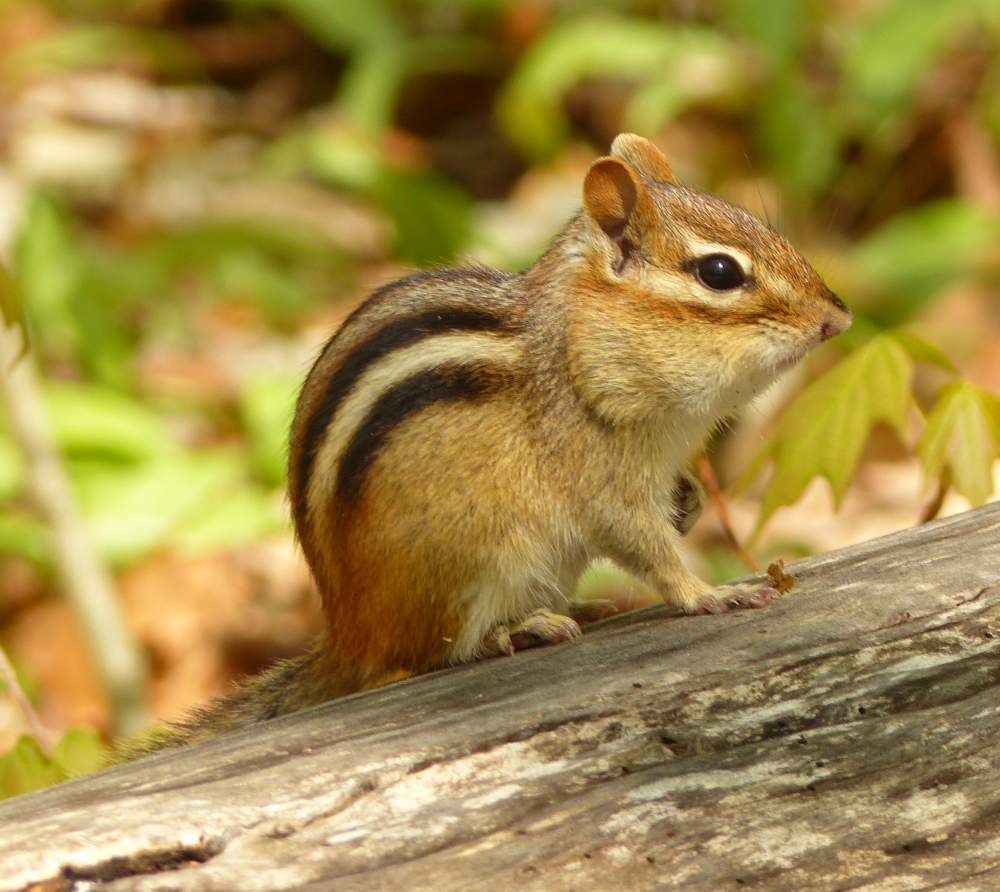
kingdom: Animalia
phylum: Chordata
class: Mammalia
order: Rodentia
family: Sciuridae
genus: Tamias
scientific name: Tamias striatus
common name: Eastern chipmunk
